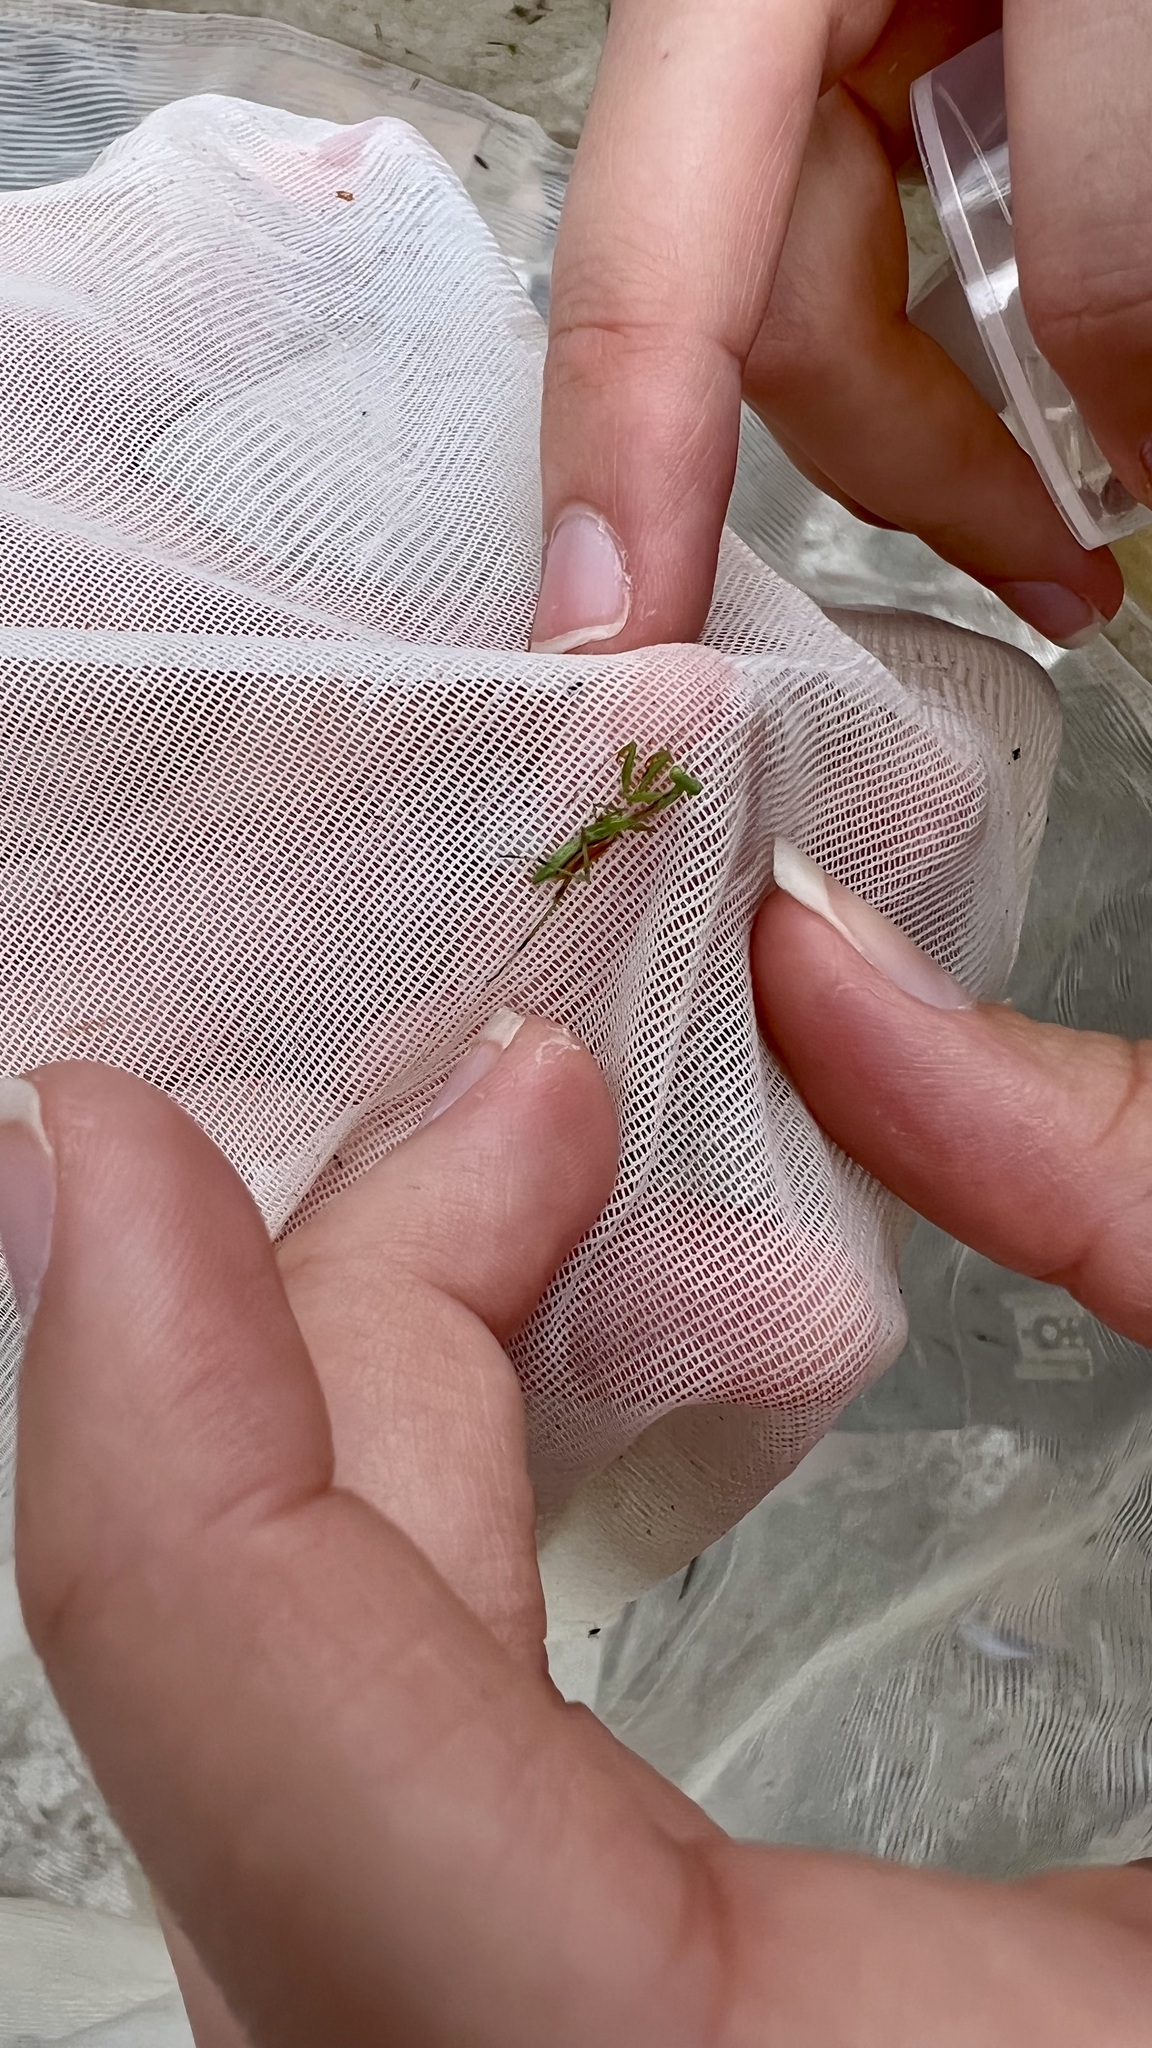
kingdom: Animalia
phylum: Arthropoda
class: Insecta
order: Mantodea
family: Mantidae
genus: Pseudomantis
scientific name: Pseudomantis albofimbriata
